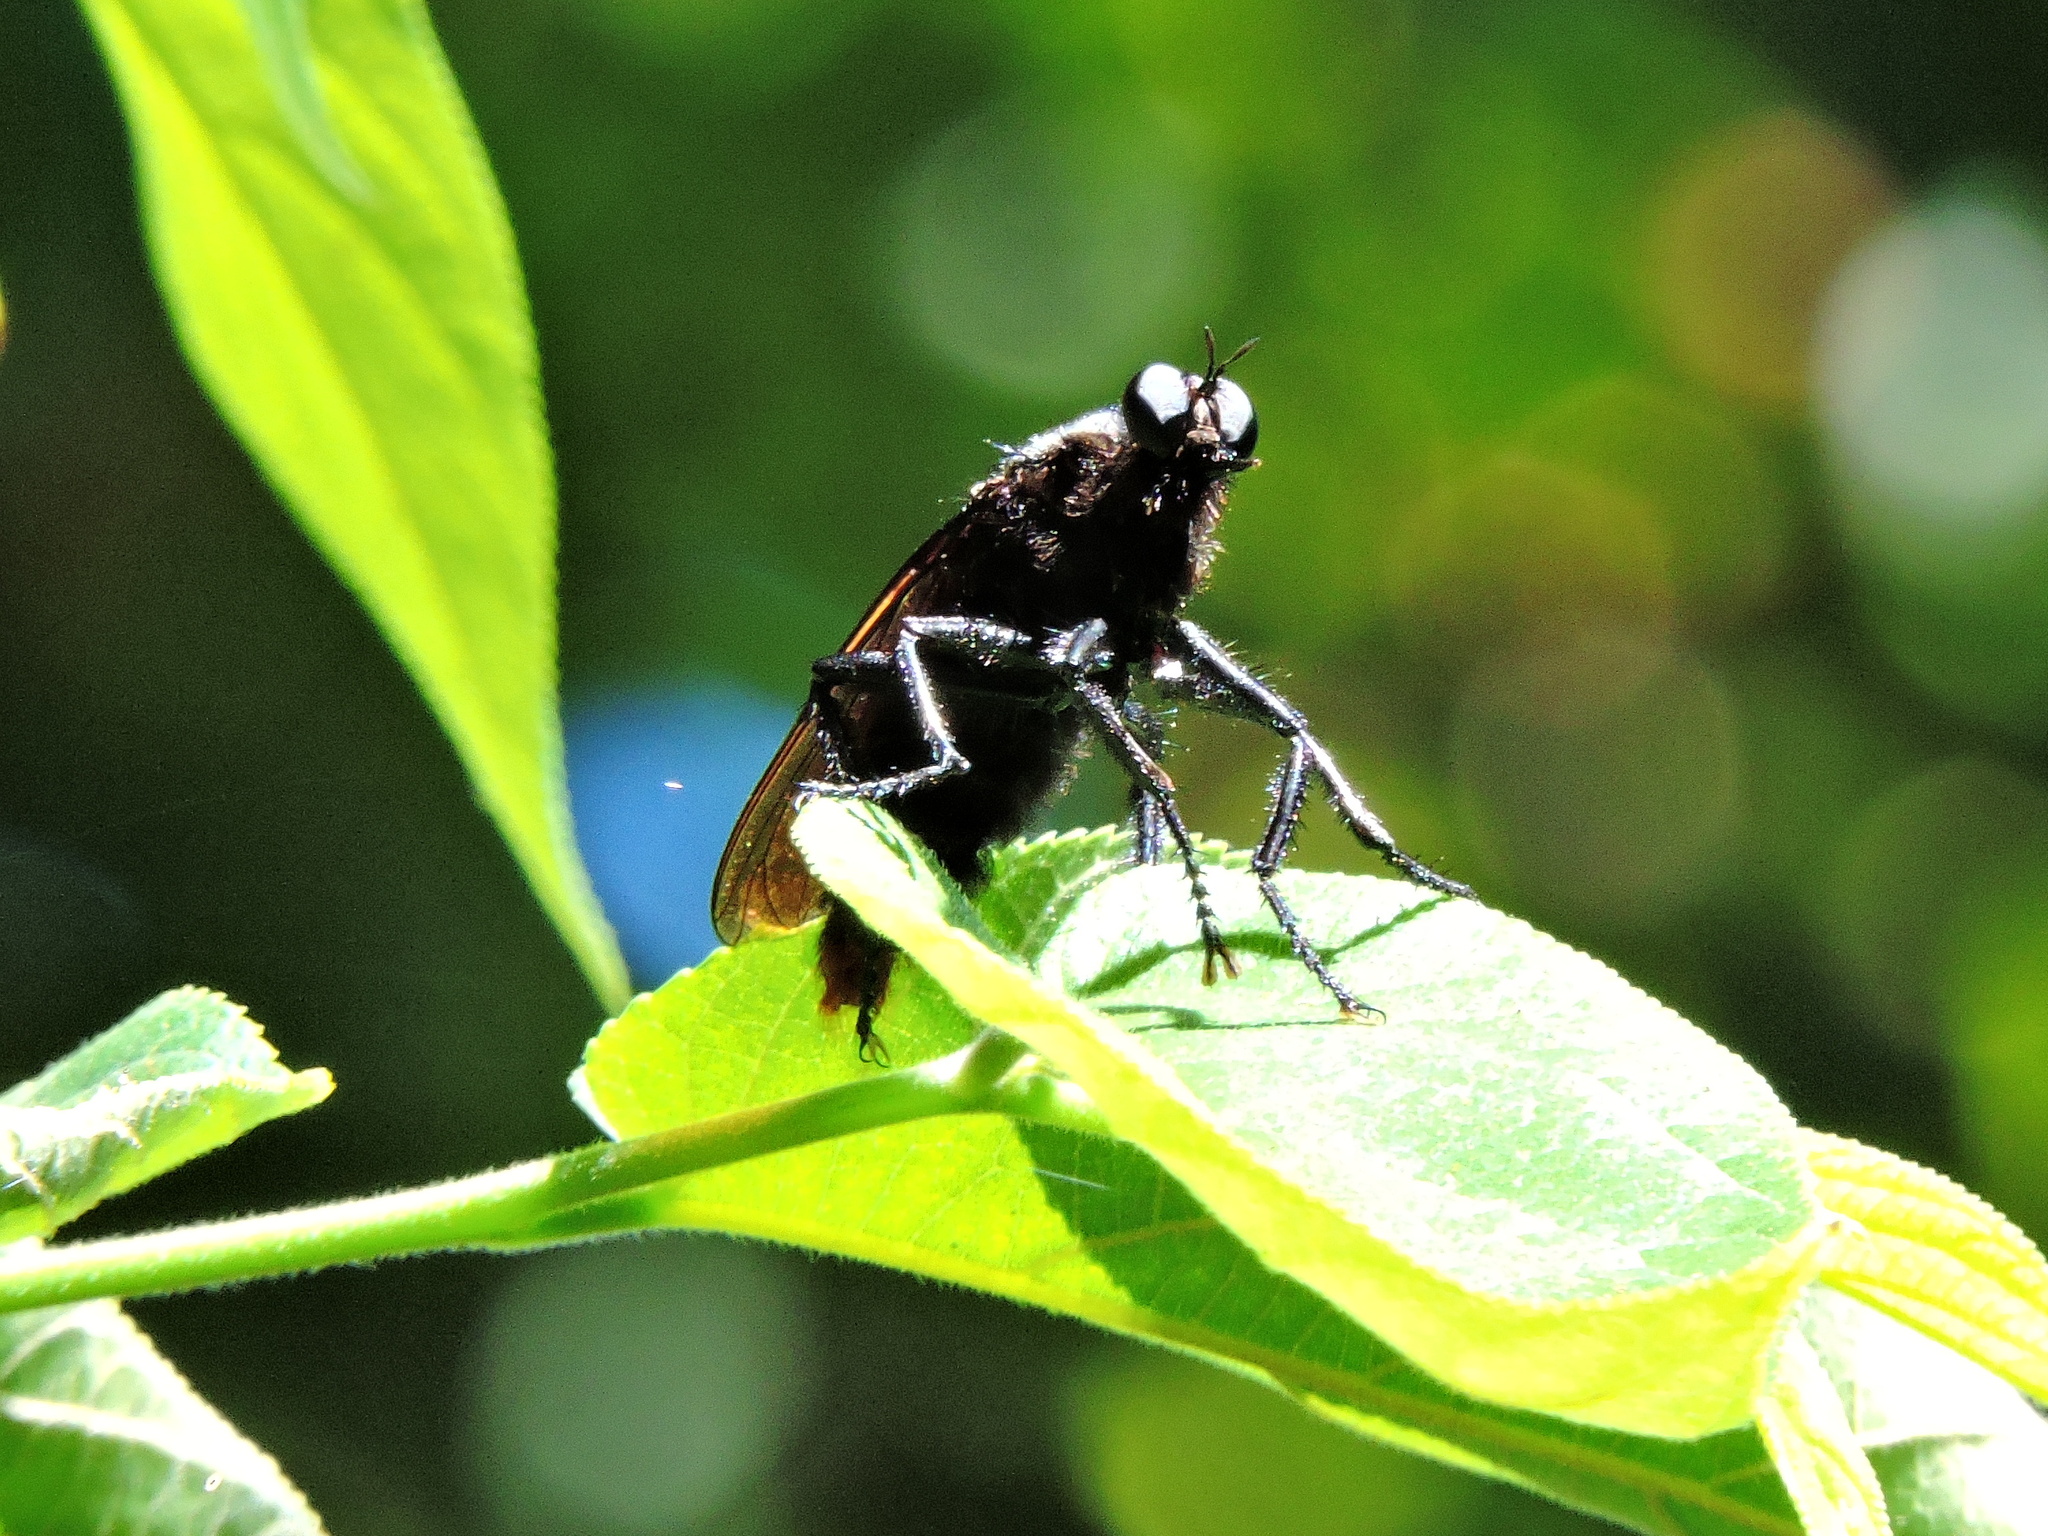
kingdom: Animalia
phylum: Arthropoda
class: Insecta
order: Diptera
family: Asilidae
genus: Microstylum
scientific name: Microstylum oberthurii
